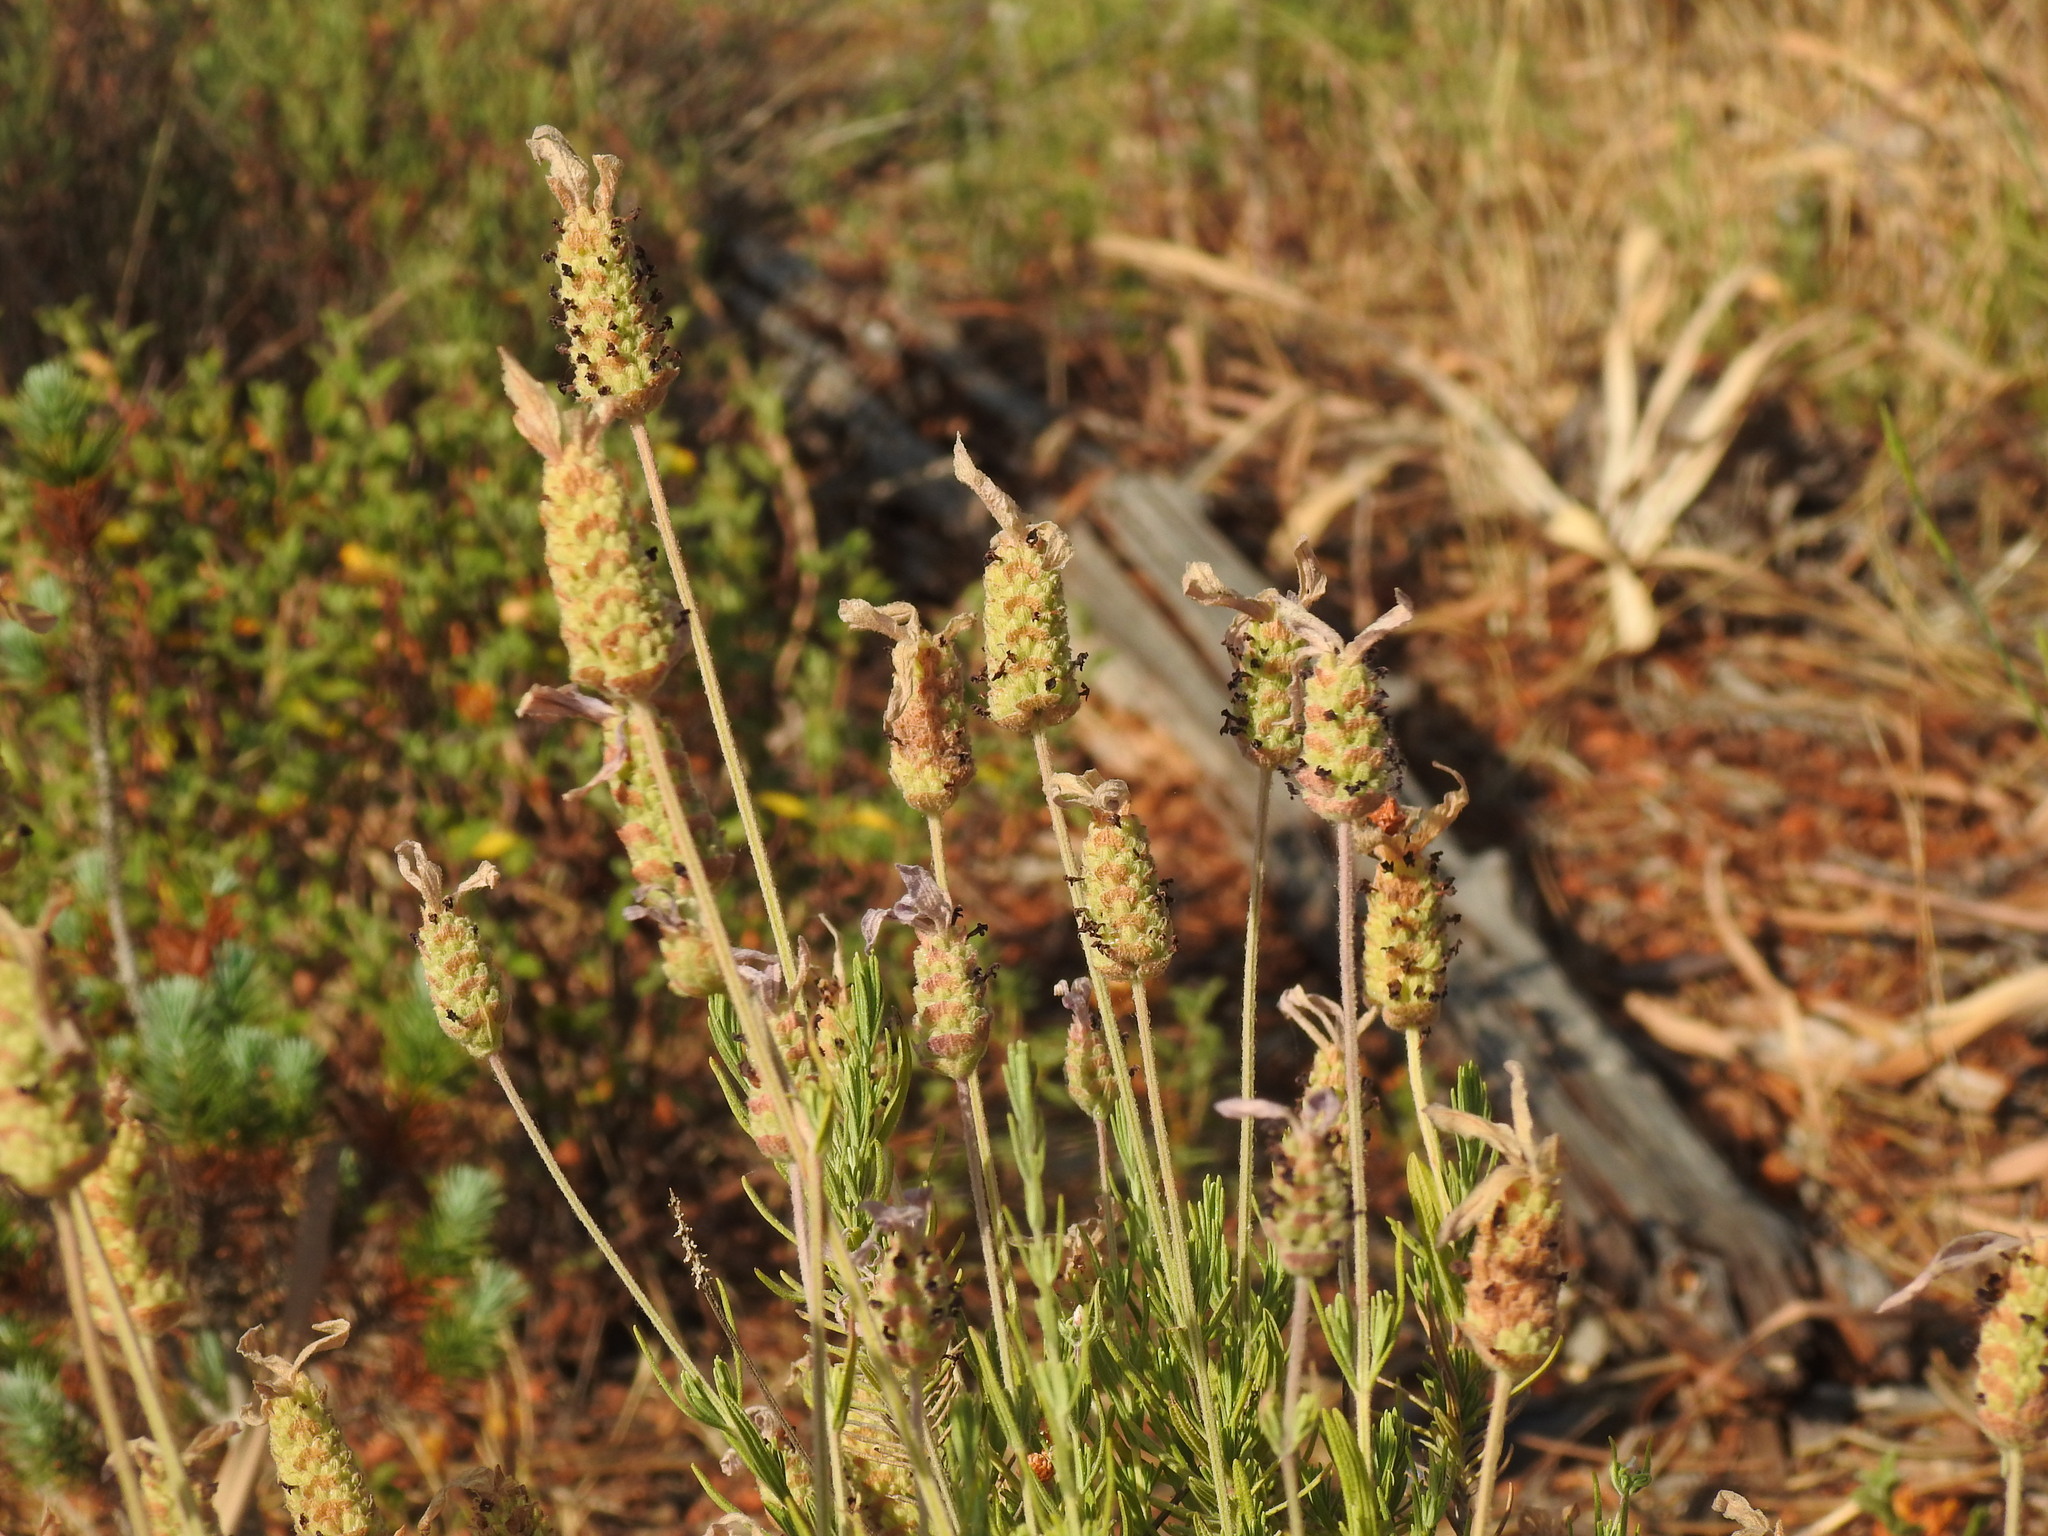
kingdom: Plantae
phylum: Tracheophyta
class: Magnoliopsida
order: Lamiales
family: Lamiaceae
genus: Lavandula
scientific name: Lavandula pedunculata
